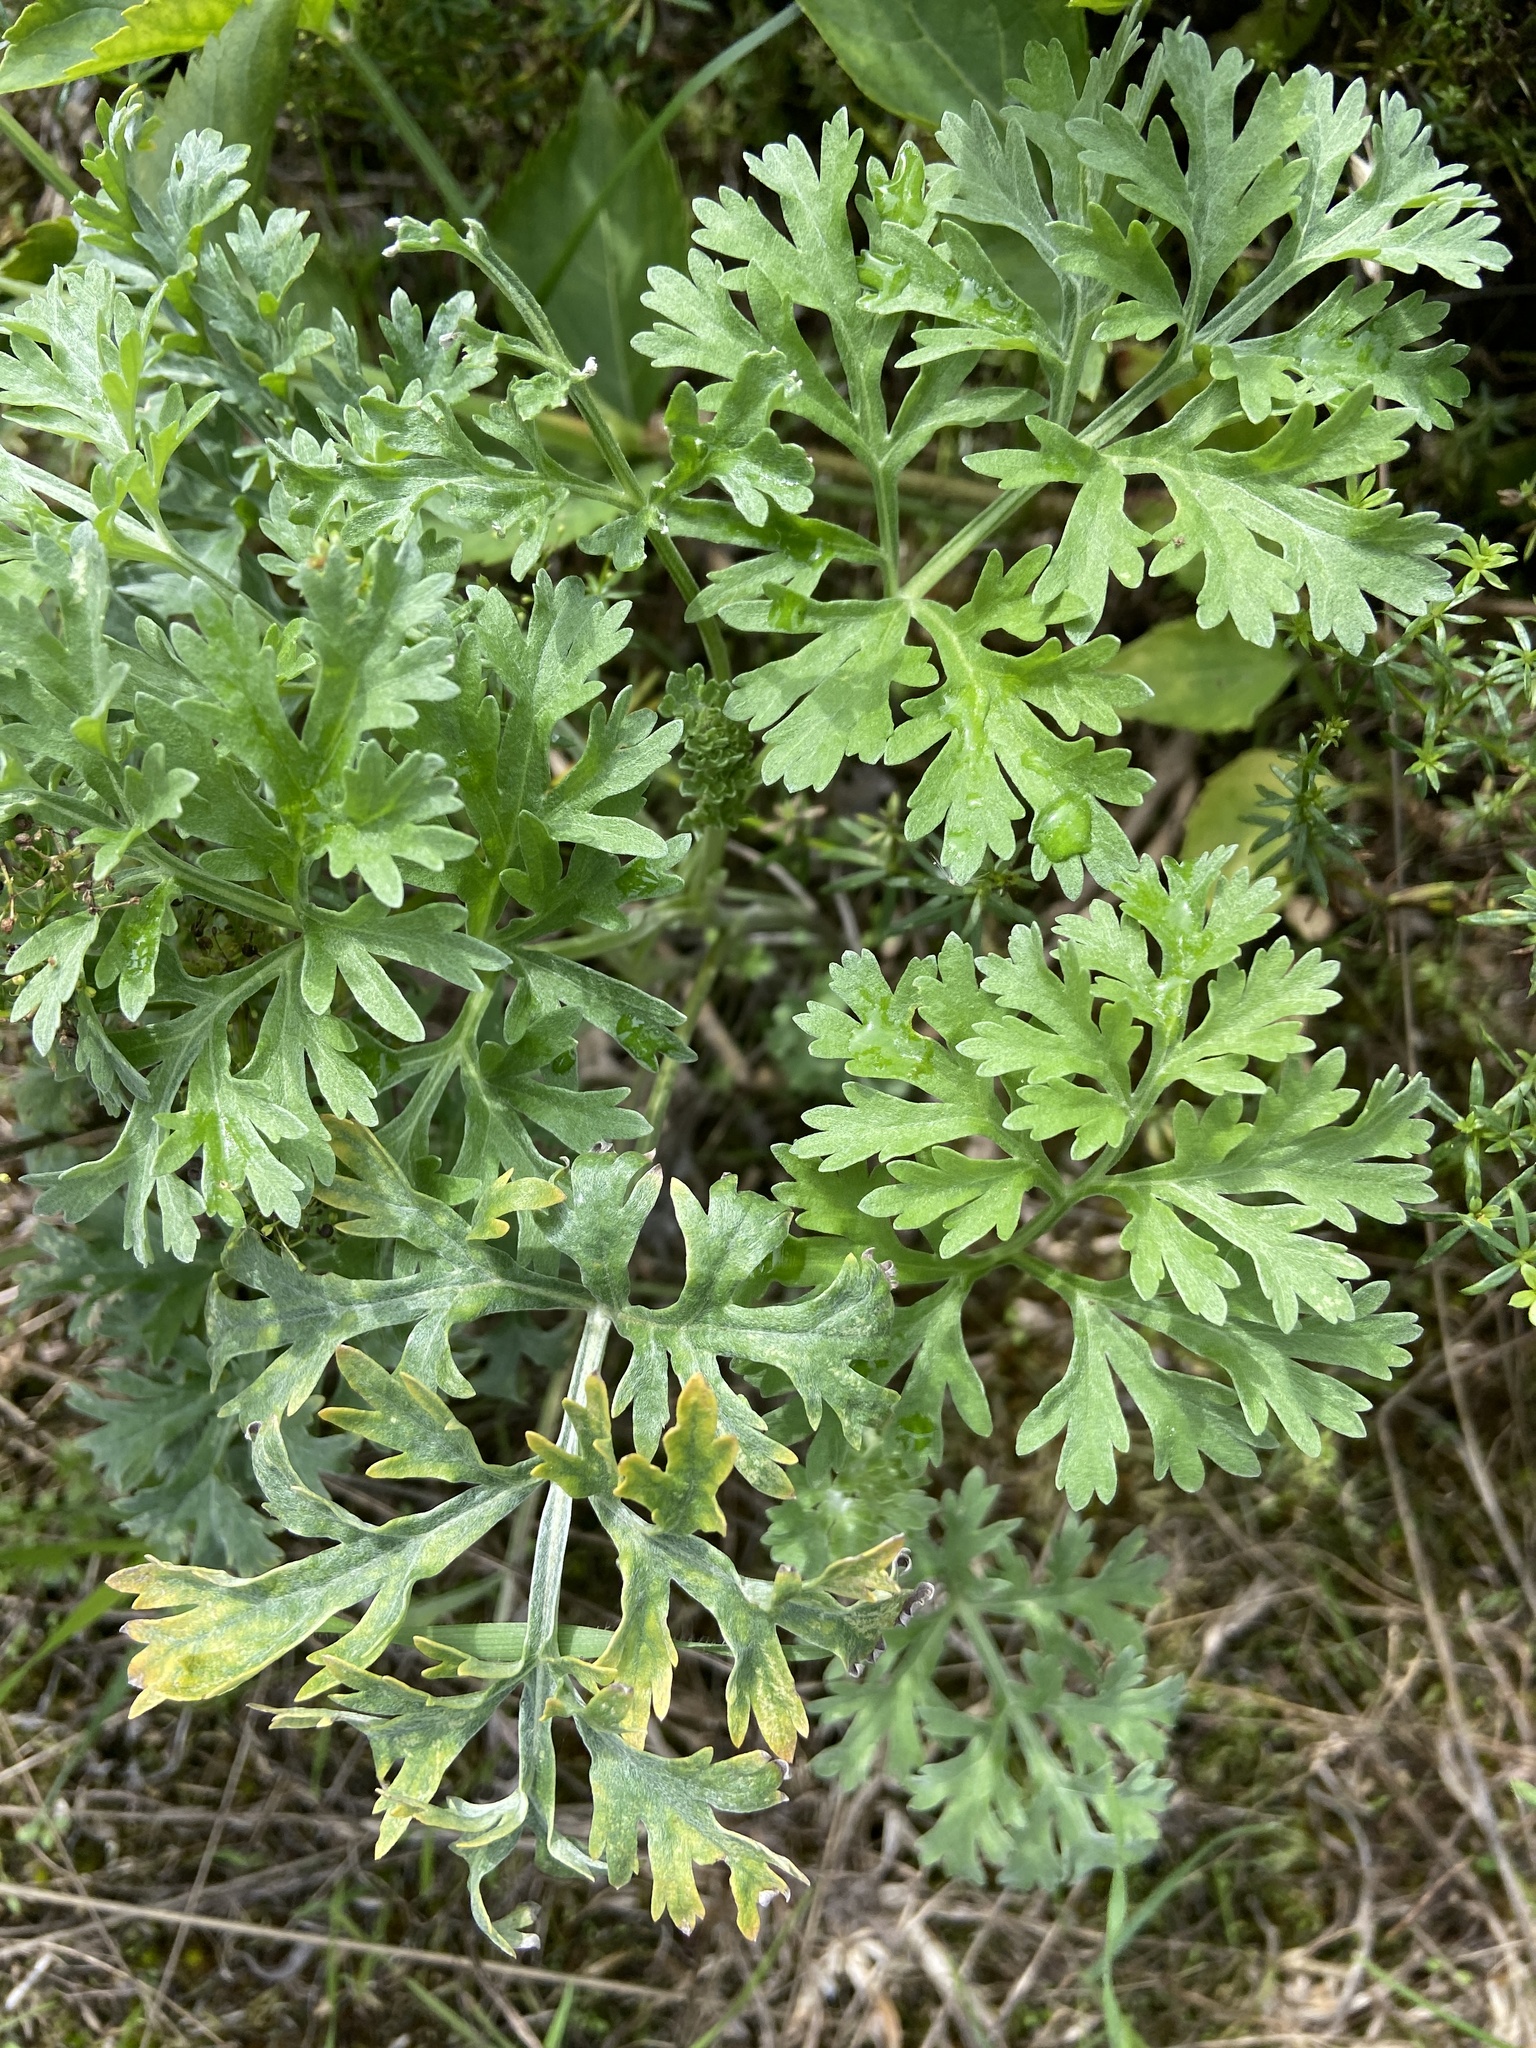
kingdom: Plantae
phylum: Tracheophyta
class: Magnoliopsida
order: Asterales
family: Asteraceae
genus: Artemisia
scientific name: Artemisia absinthium
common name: Wormwood
